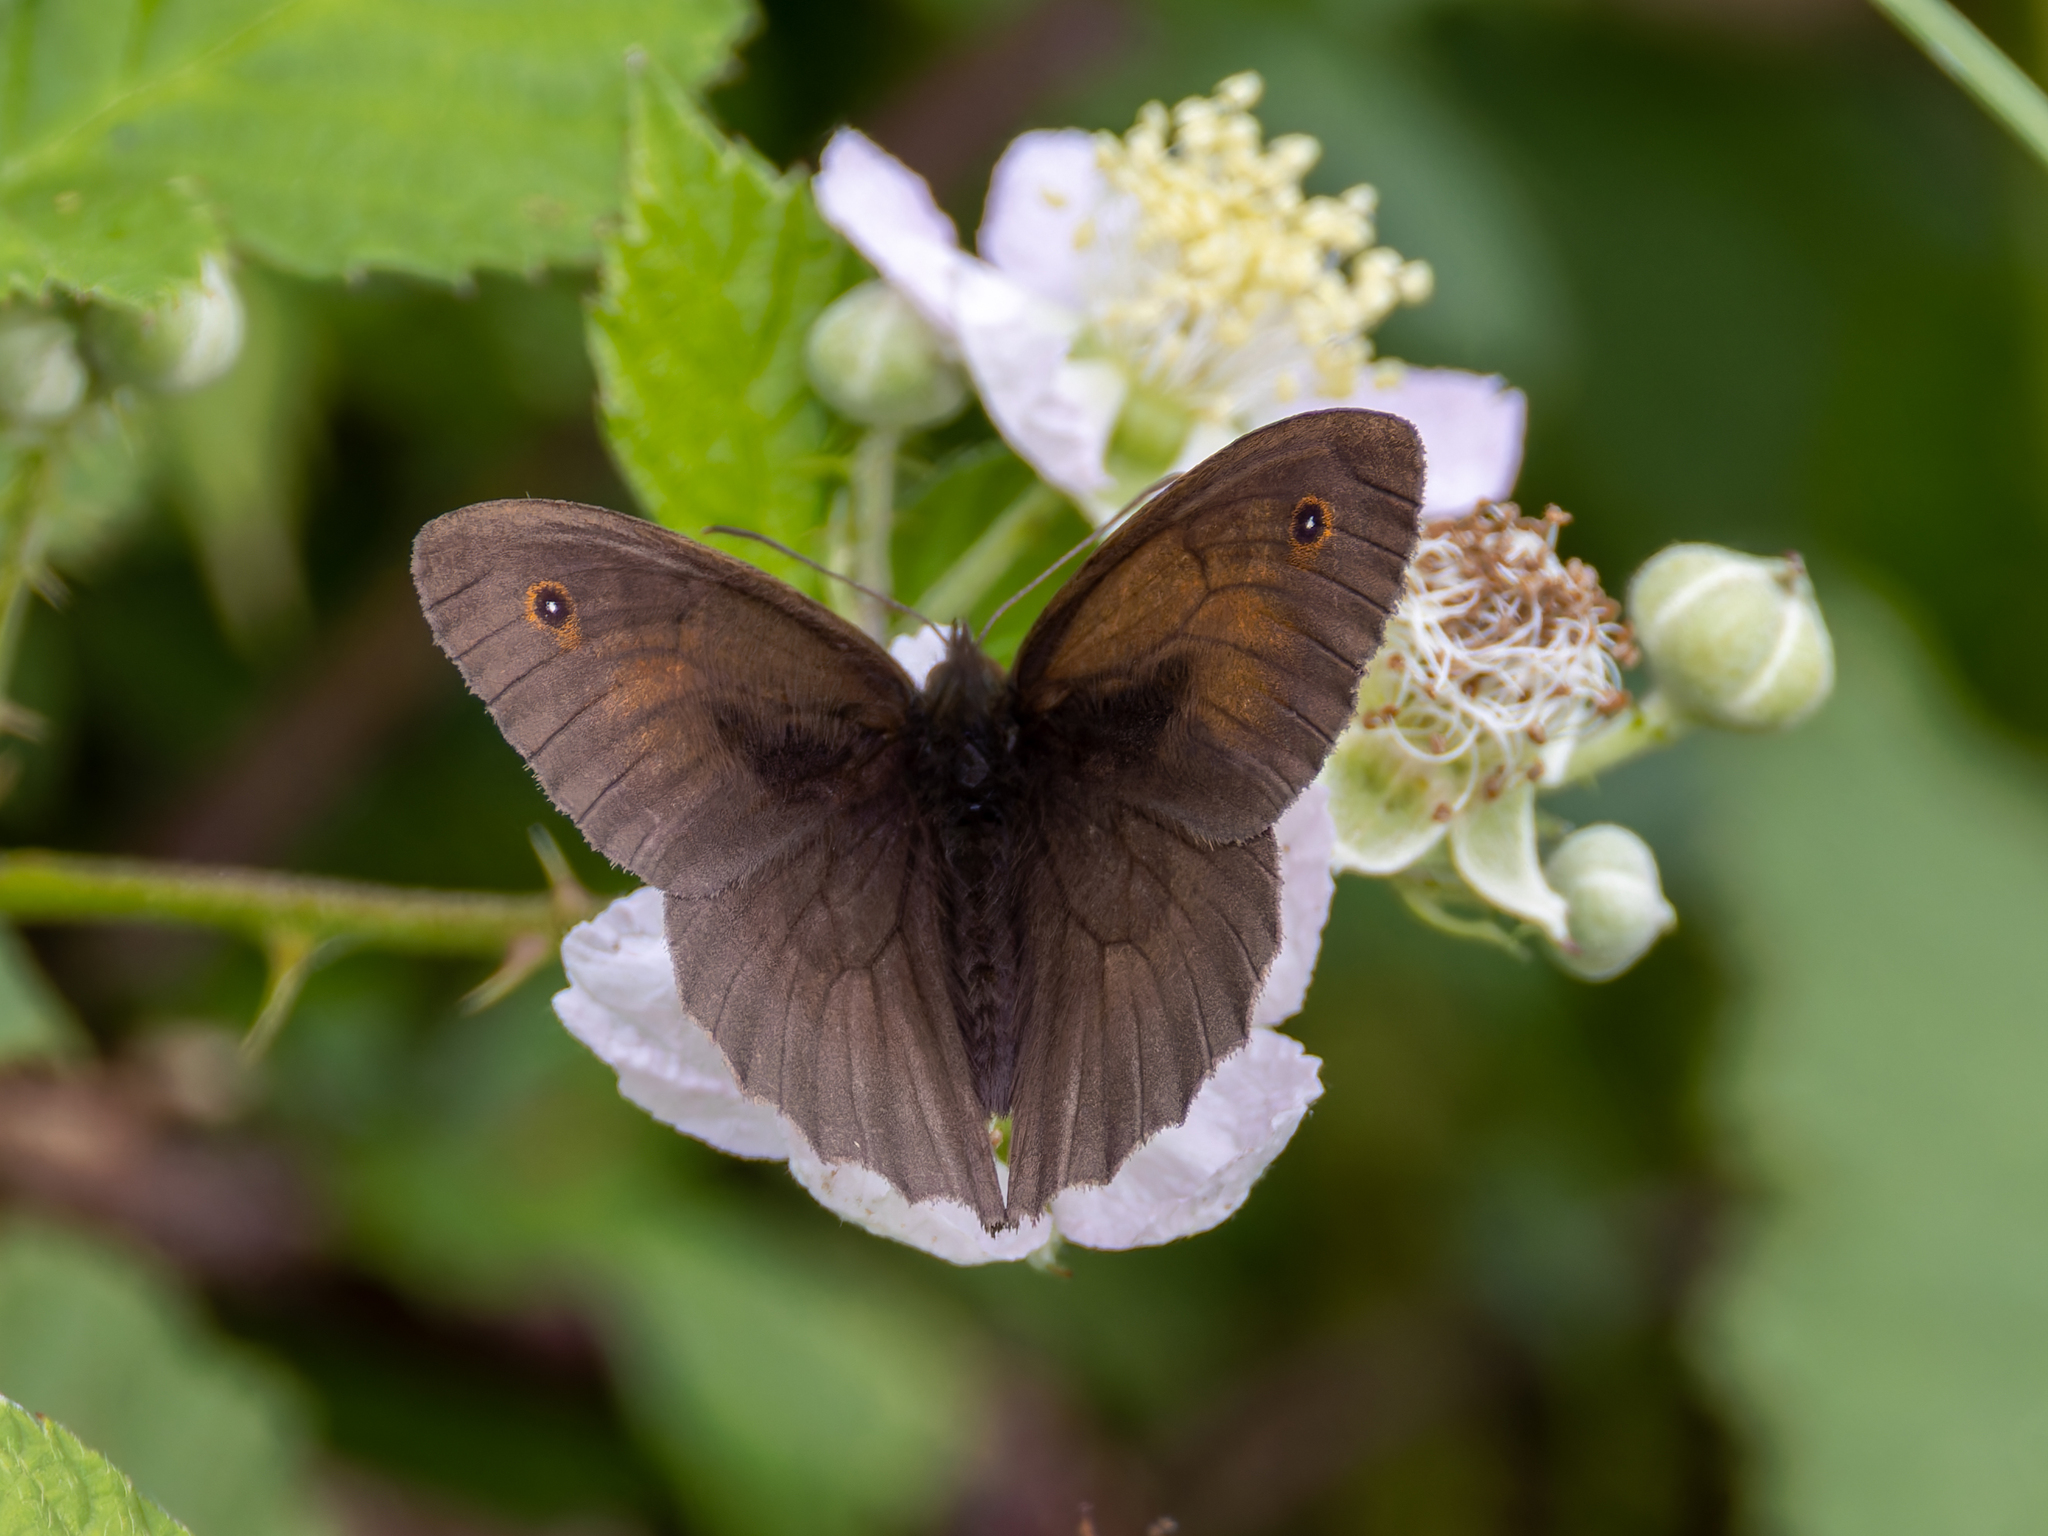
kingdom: Animalia
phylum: Arthropoda
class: Insecta
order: Lepidoptera
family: Nymphalidae
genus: Maniola
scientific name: Maniola jurtina
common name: Meadow brown
